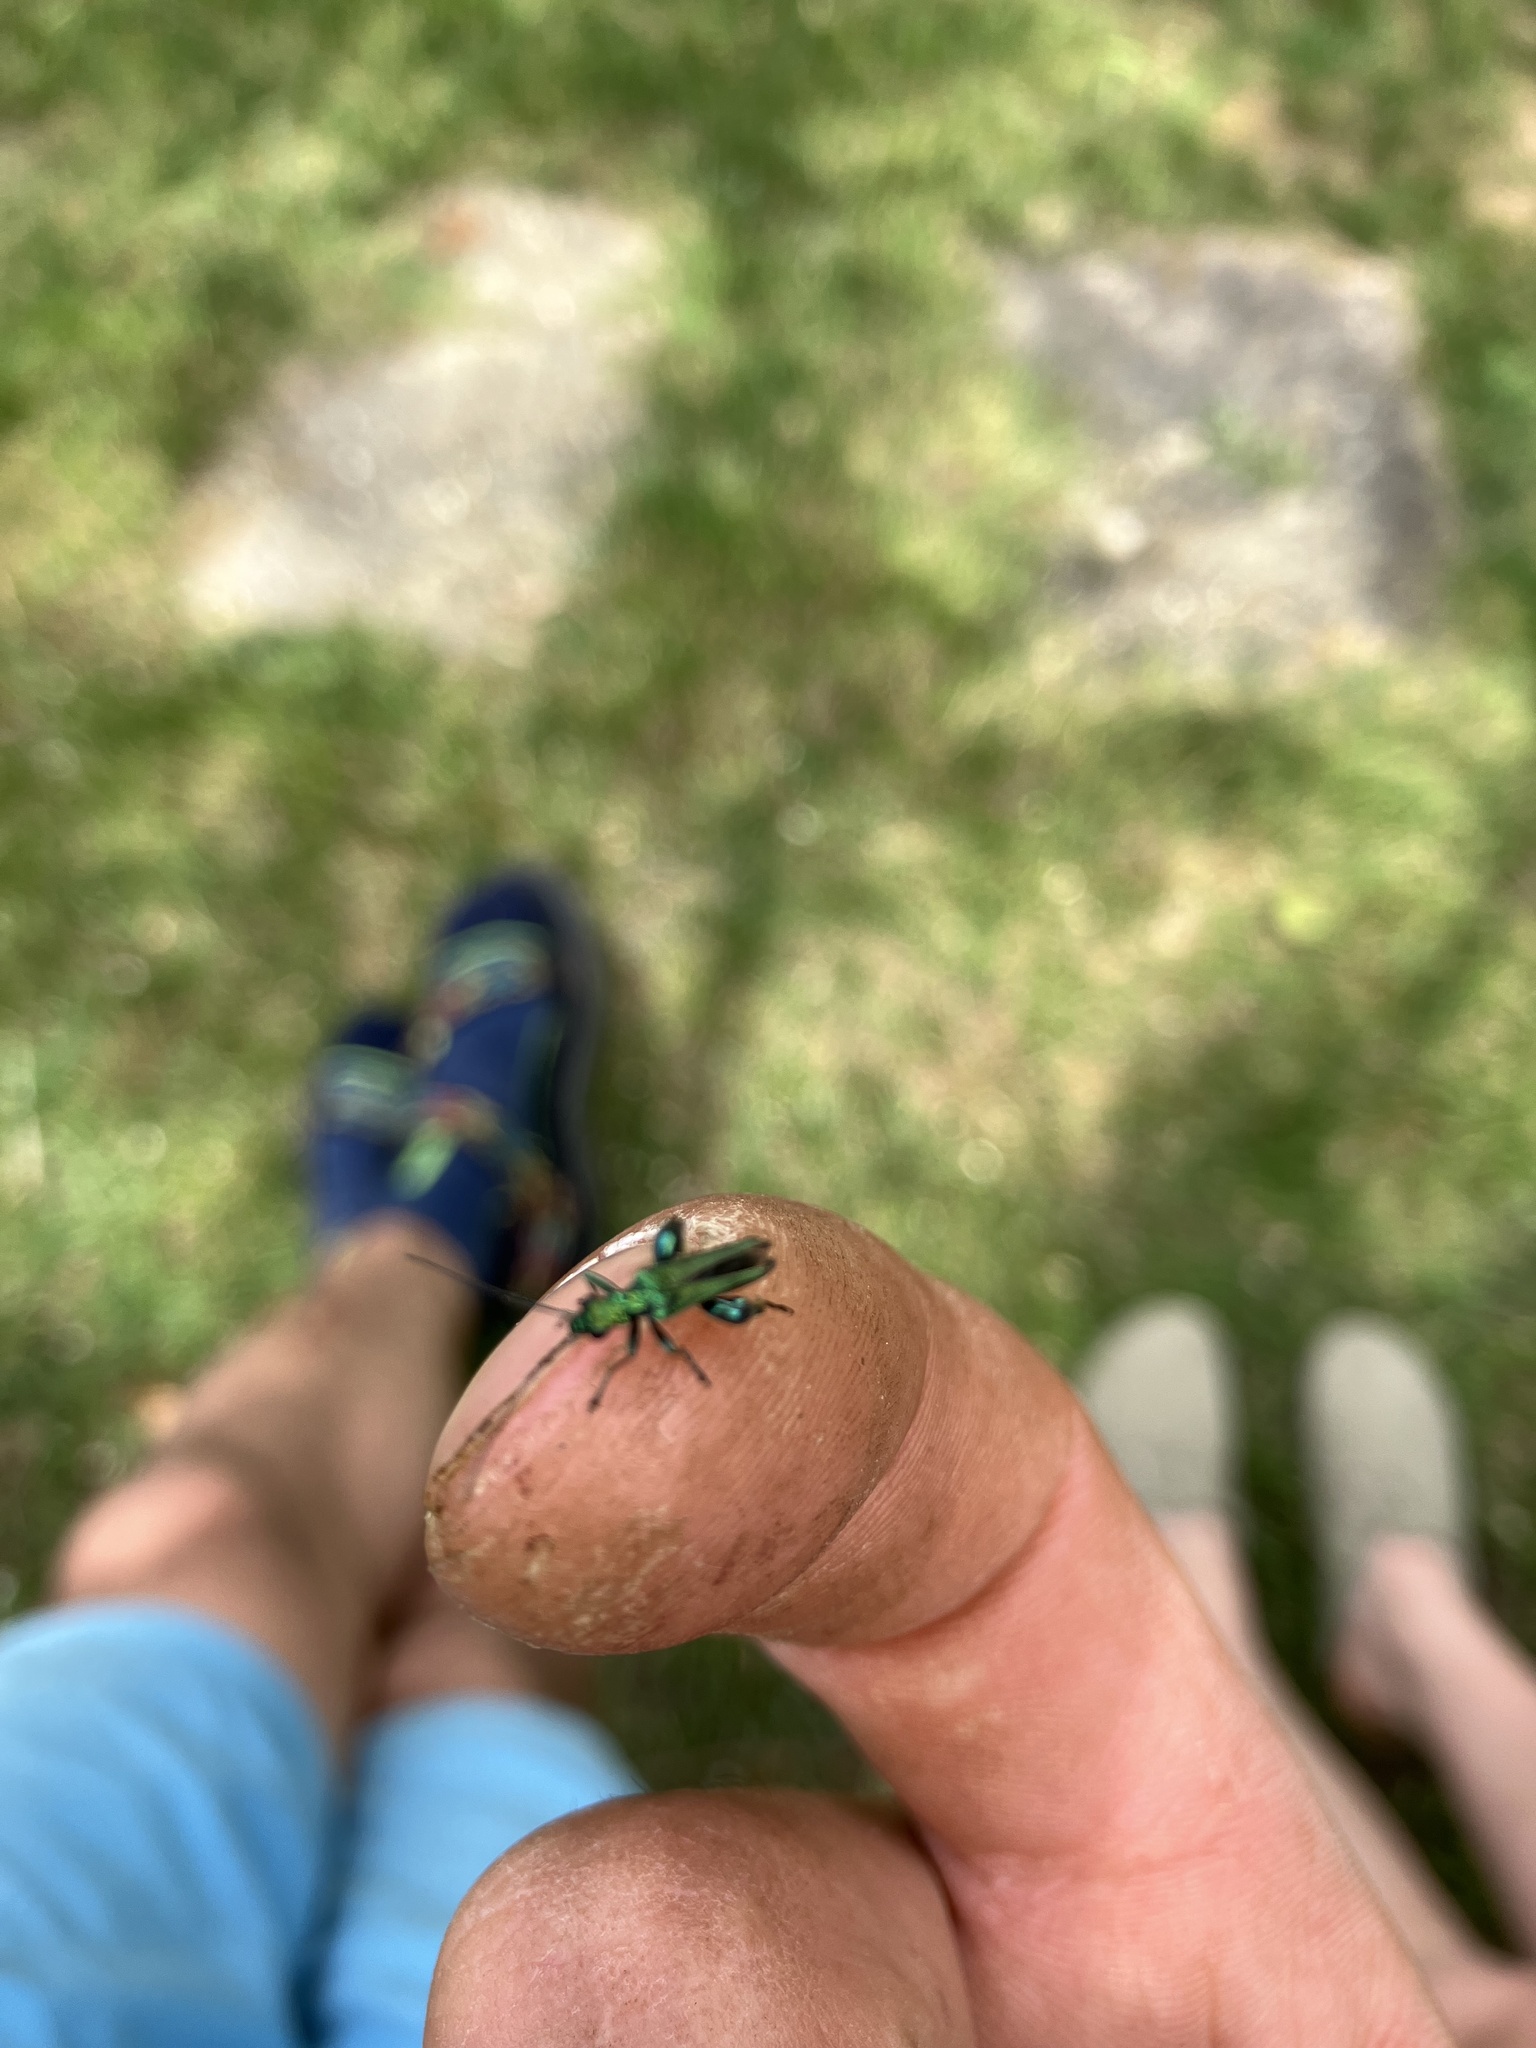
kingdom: Animalia
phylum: Arthropoda
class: Insecta
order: Coleoptera
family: Oedemeridae
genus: Oedemera
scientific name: Oedemera nobilis
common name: Swollen-thighed beetle
